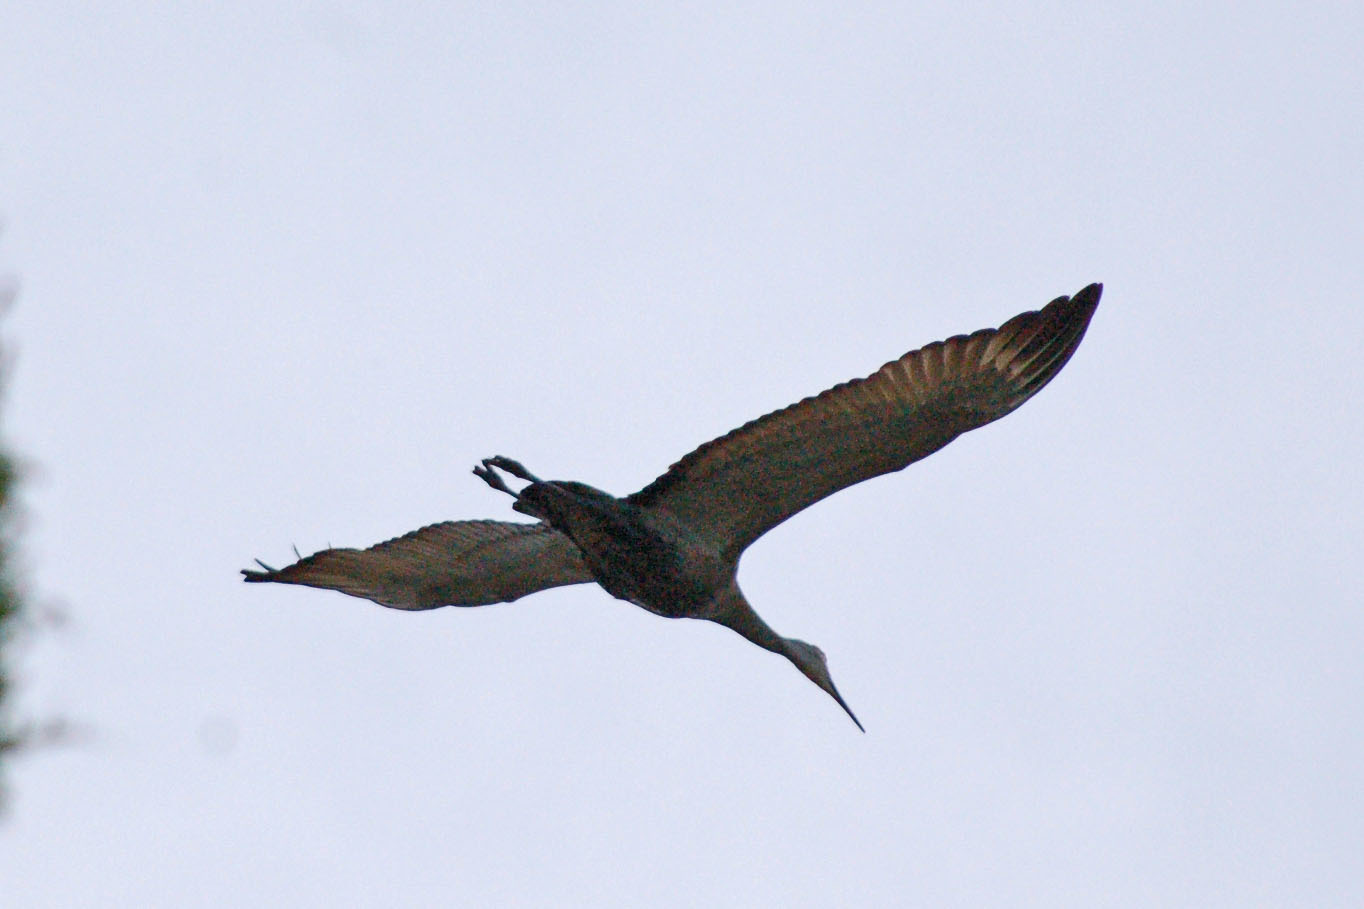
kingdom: Animalia
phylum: Chordata
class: Aves
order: Gruiformes
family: Gruidae
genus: Grus
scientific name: Grus canadensis
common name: Sandhill crane
